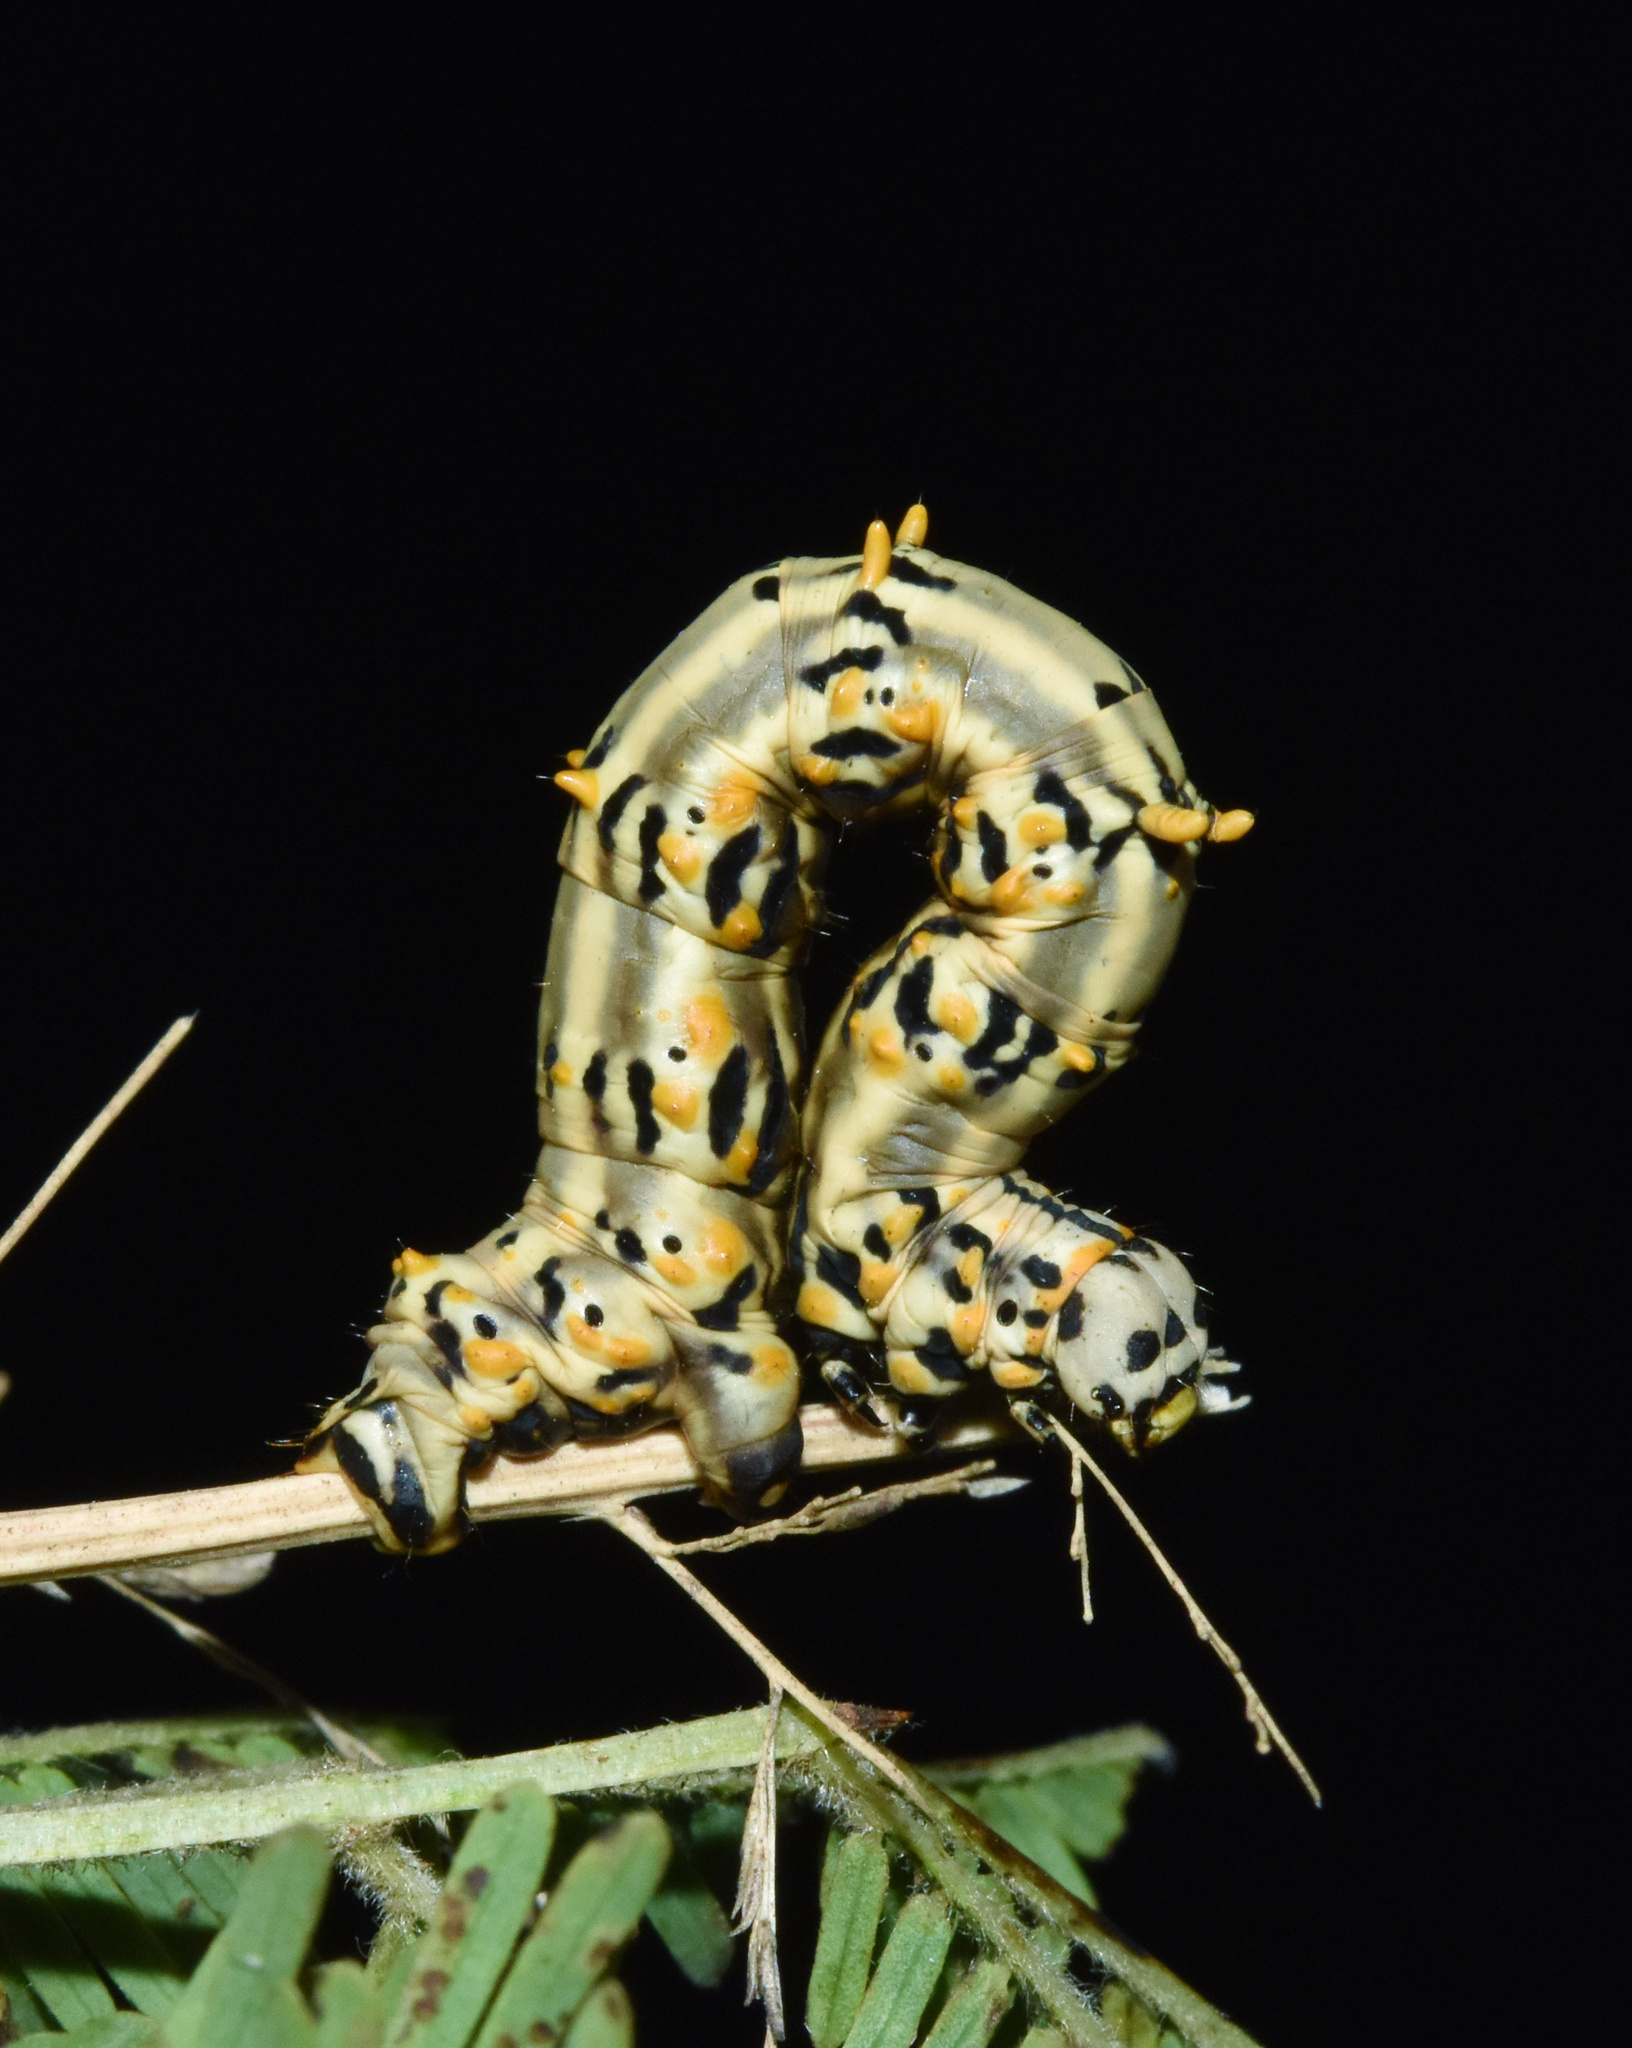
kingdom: Animalia
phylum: Arthropoda
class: Insecta
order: Lepidoptera
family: Geometridae
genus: Coenina
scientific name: Coenina poecilaria
